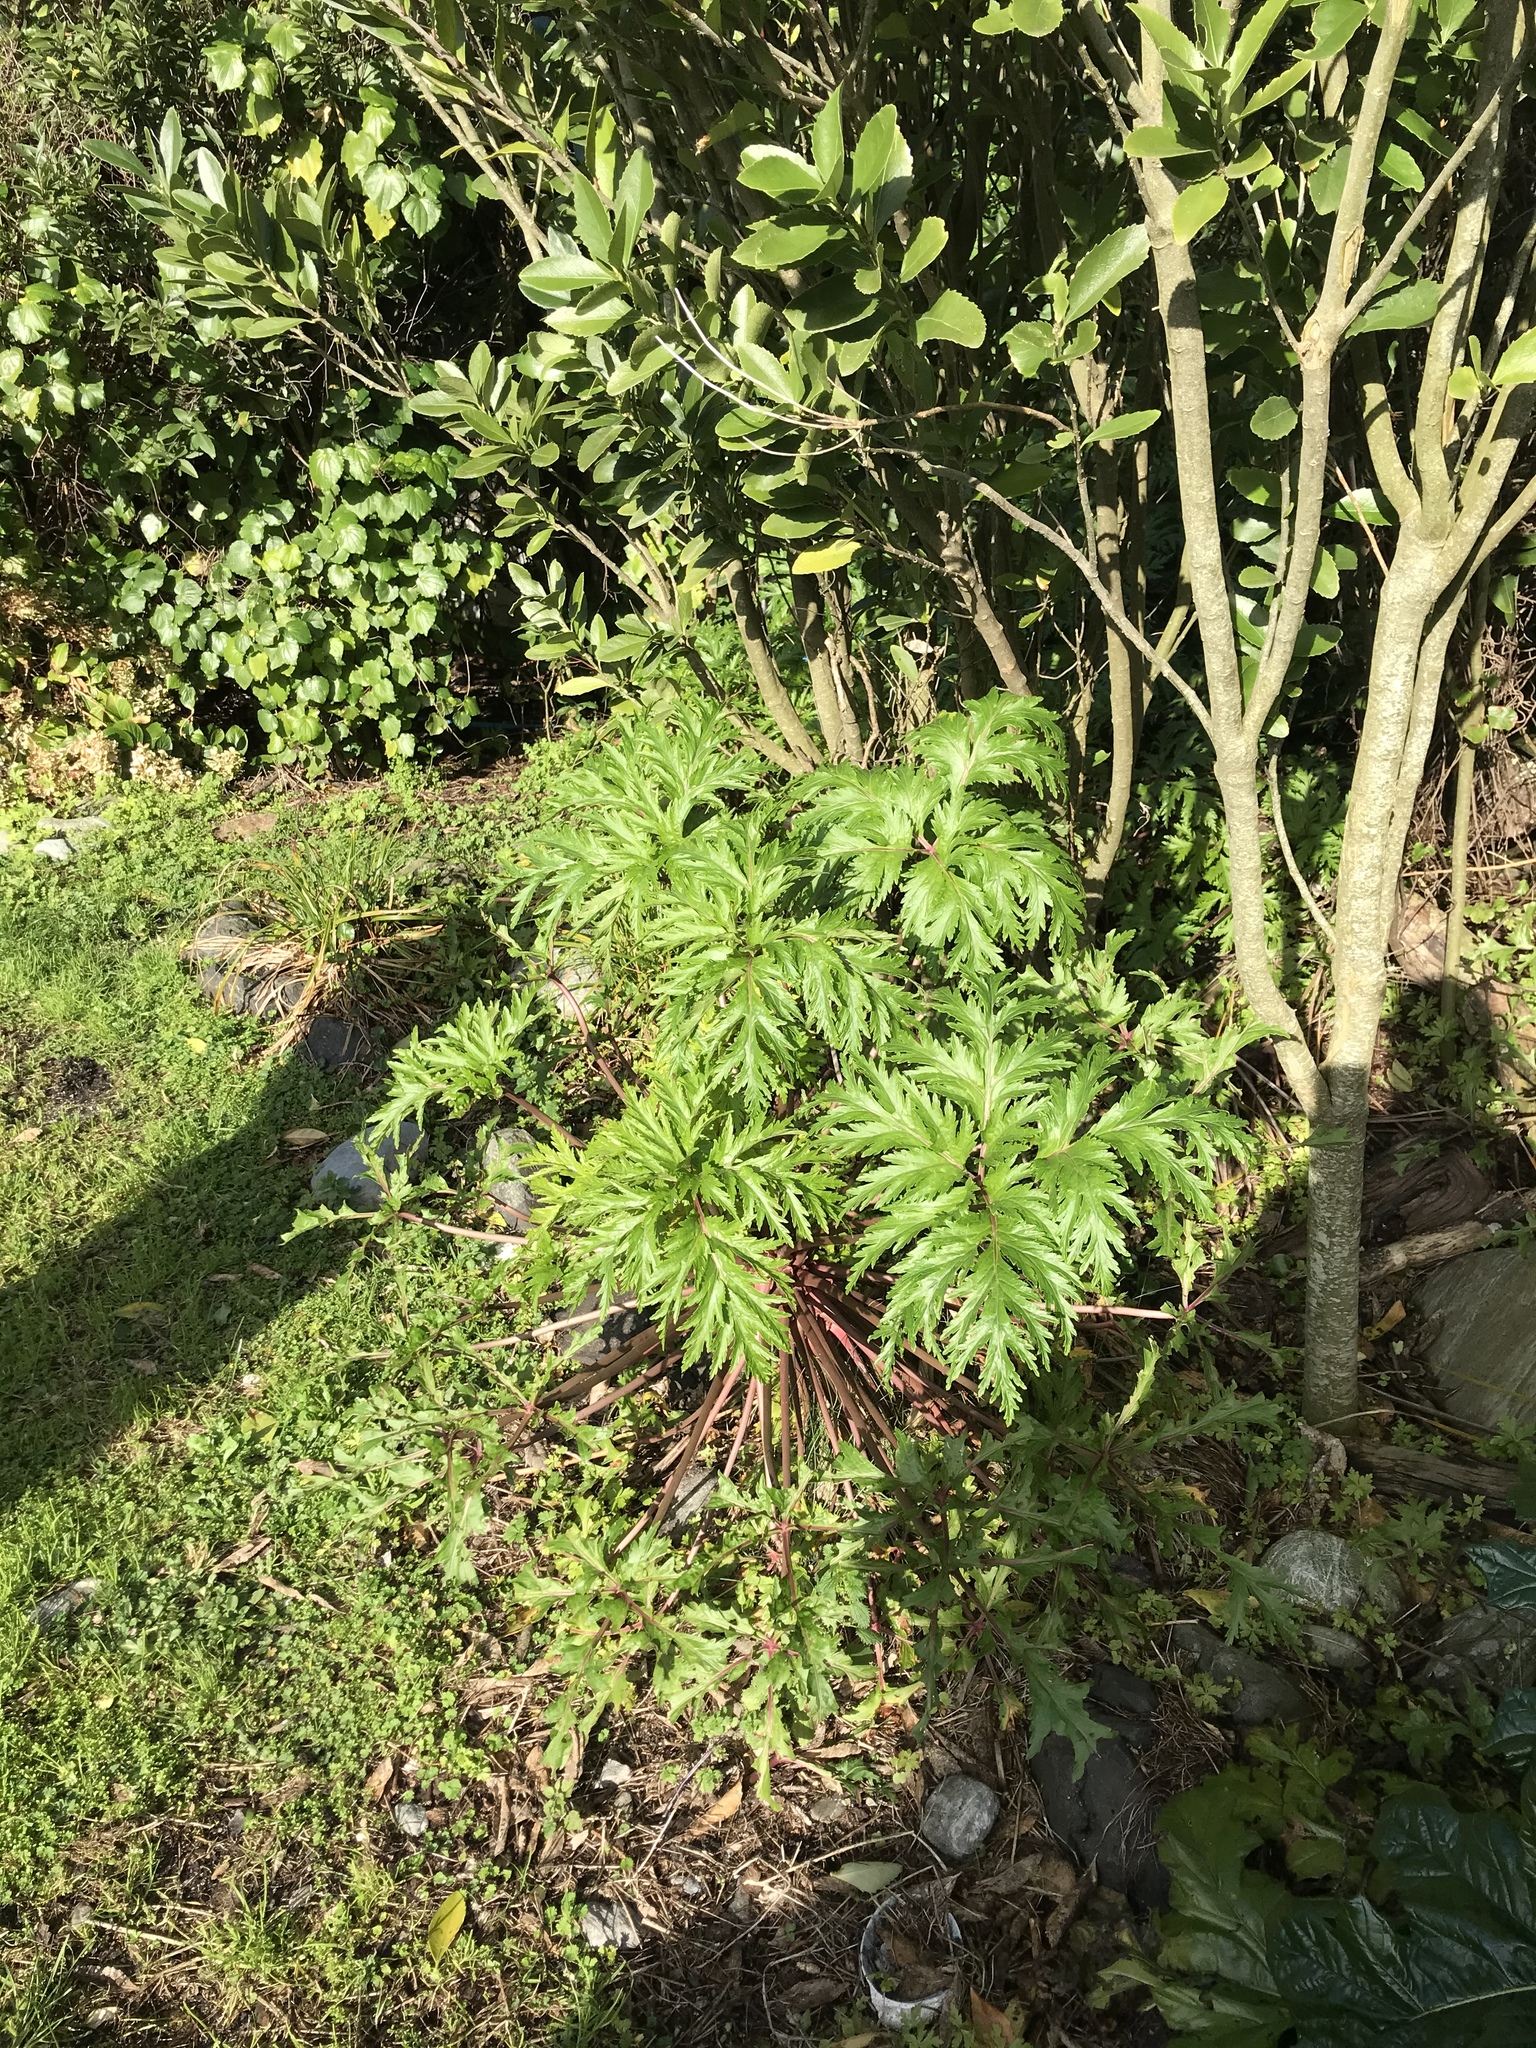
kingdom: Plantae
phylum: Tracheophyta
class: Magnoliopsida
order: Geraniales
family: Geraniaceae
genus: Geranium
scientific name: Geranium maderense
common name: Giant herb-robert
